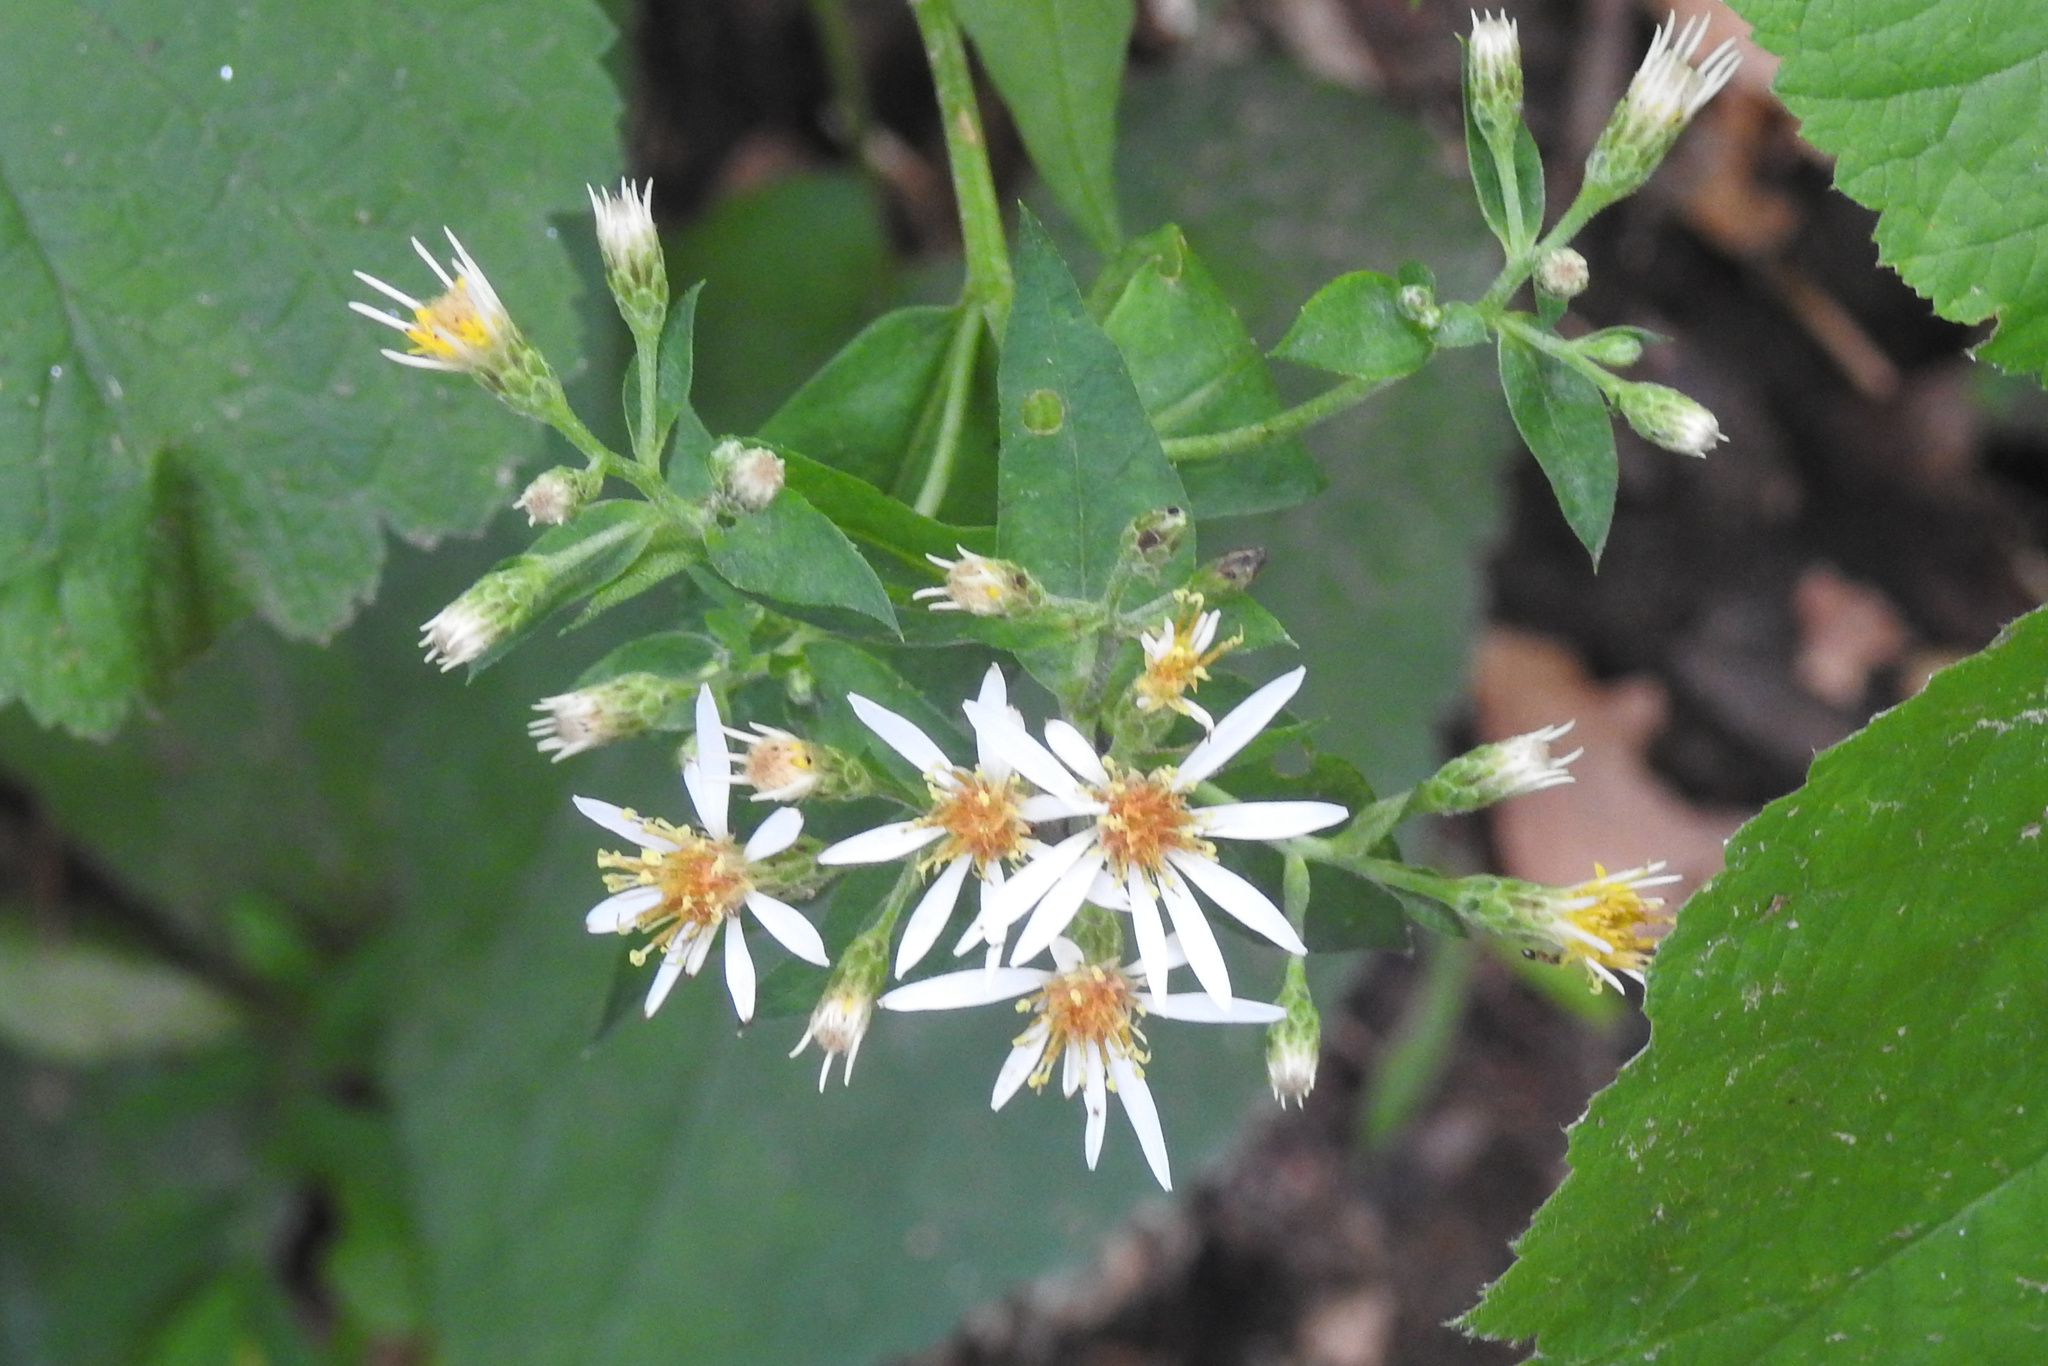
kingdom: Plantae
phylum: Tracheophyta
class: Magnoliopsida
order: Asterales
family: Asteraceae
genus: Eurybia
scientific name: Eurybia divaricata
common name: White wood aster
